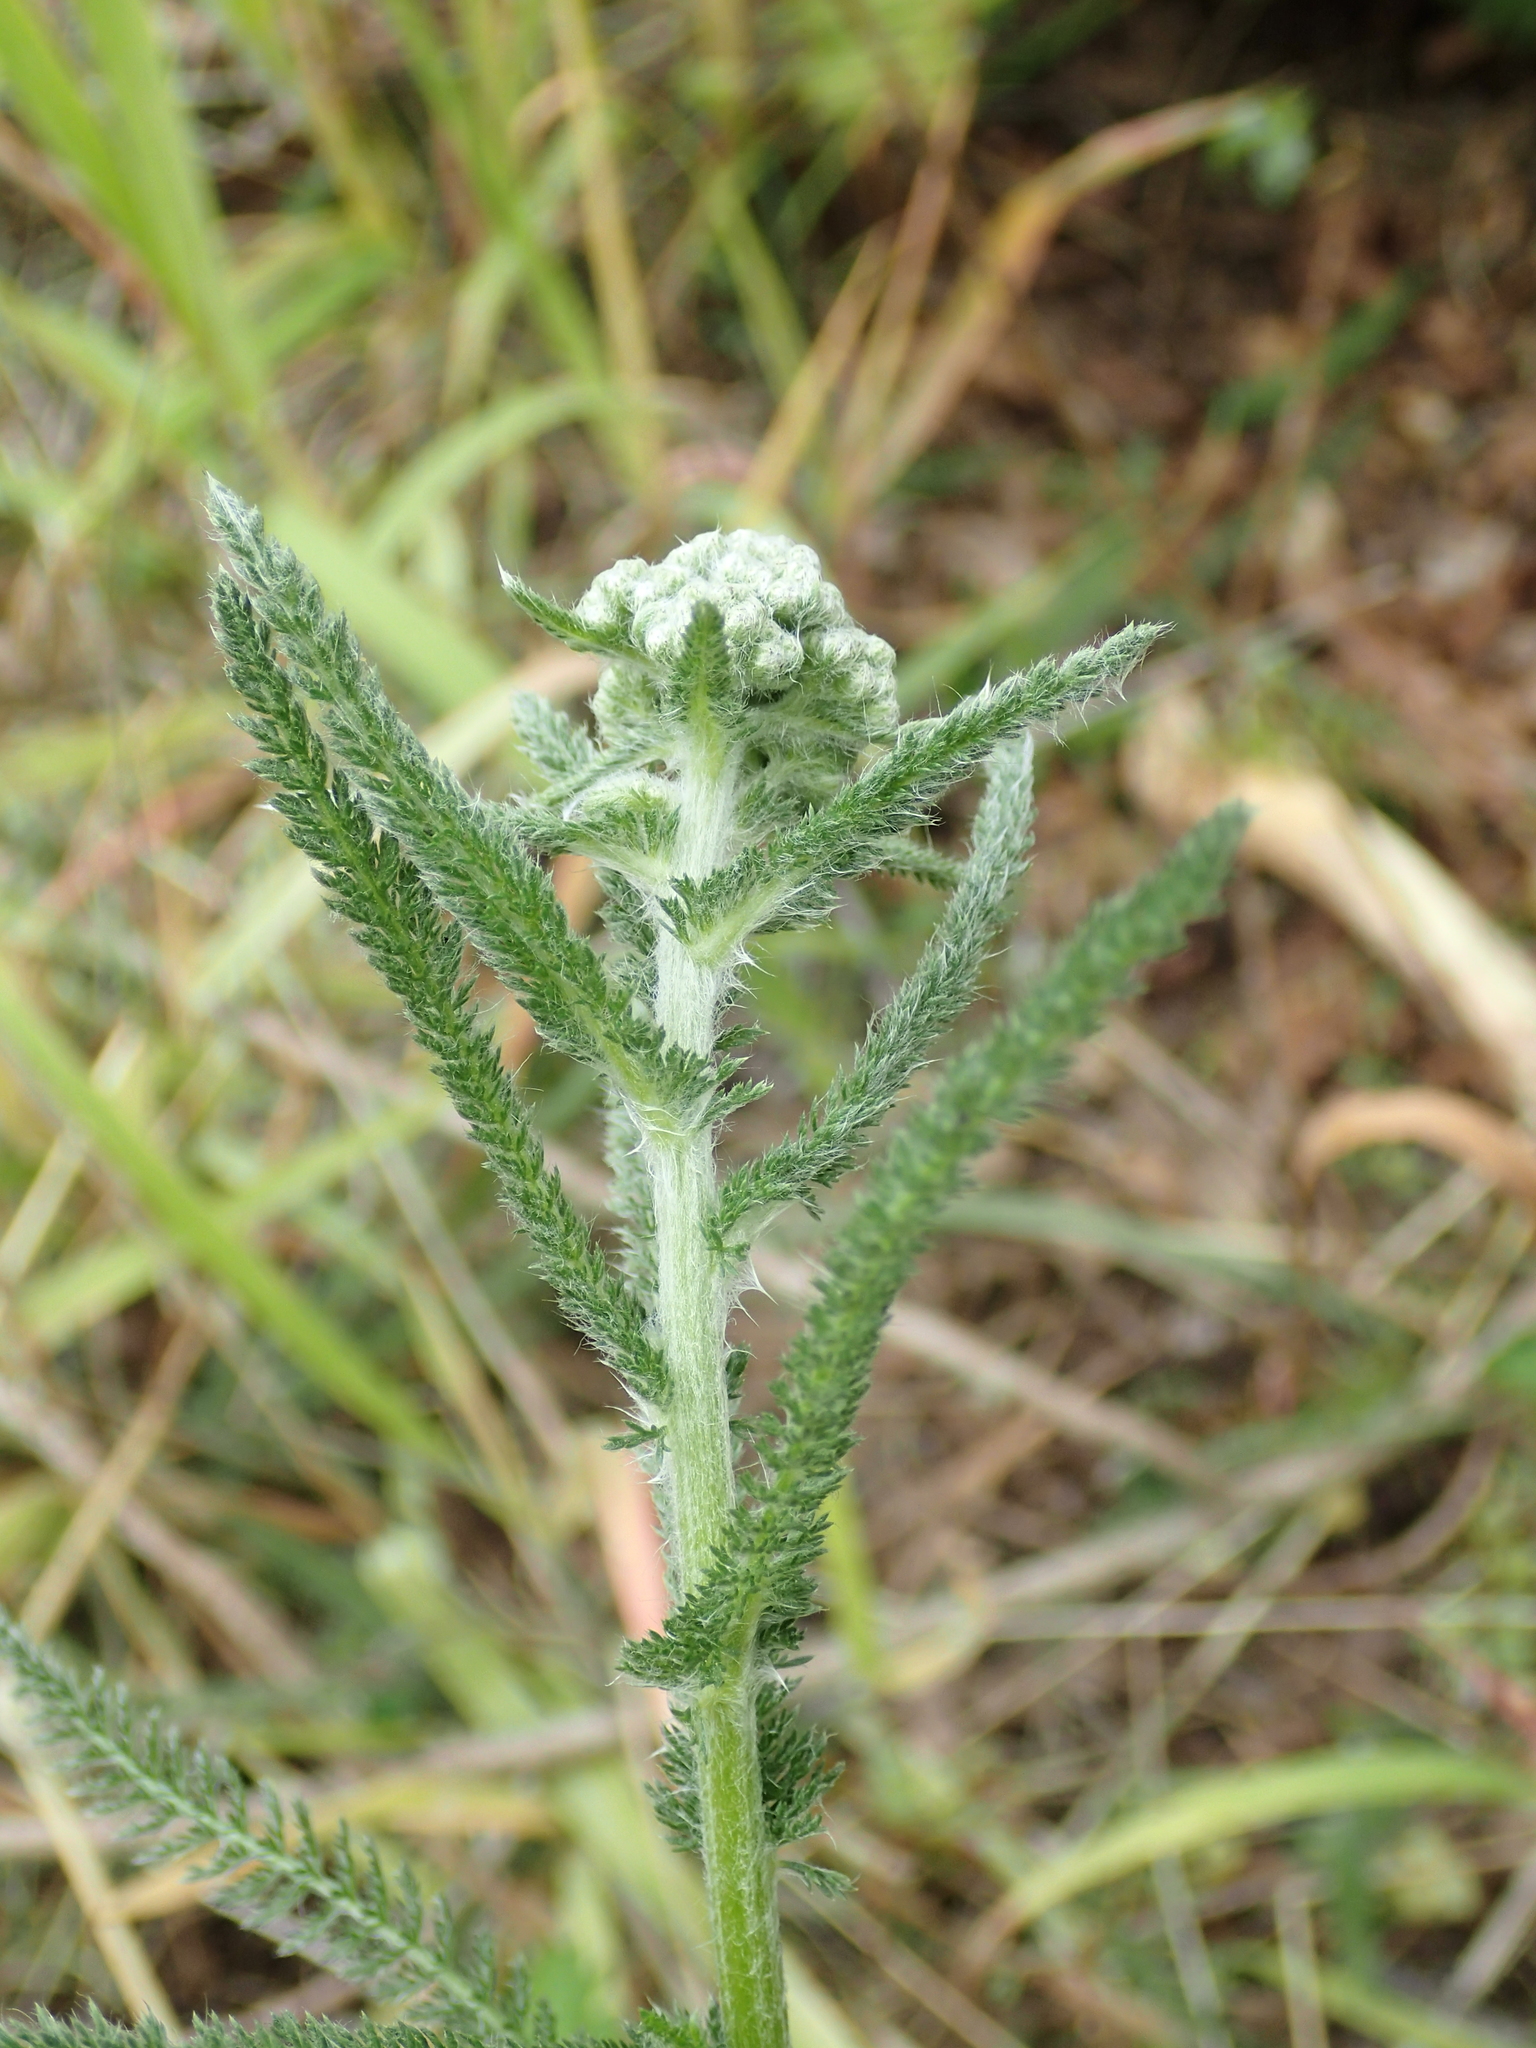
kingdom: Plantae
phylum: Tracheophyta
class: Magnoliopsida
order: Asterales
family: Asteraceae
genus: Achillea
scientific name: Achillea millefolium
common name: Yarrow
